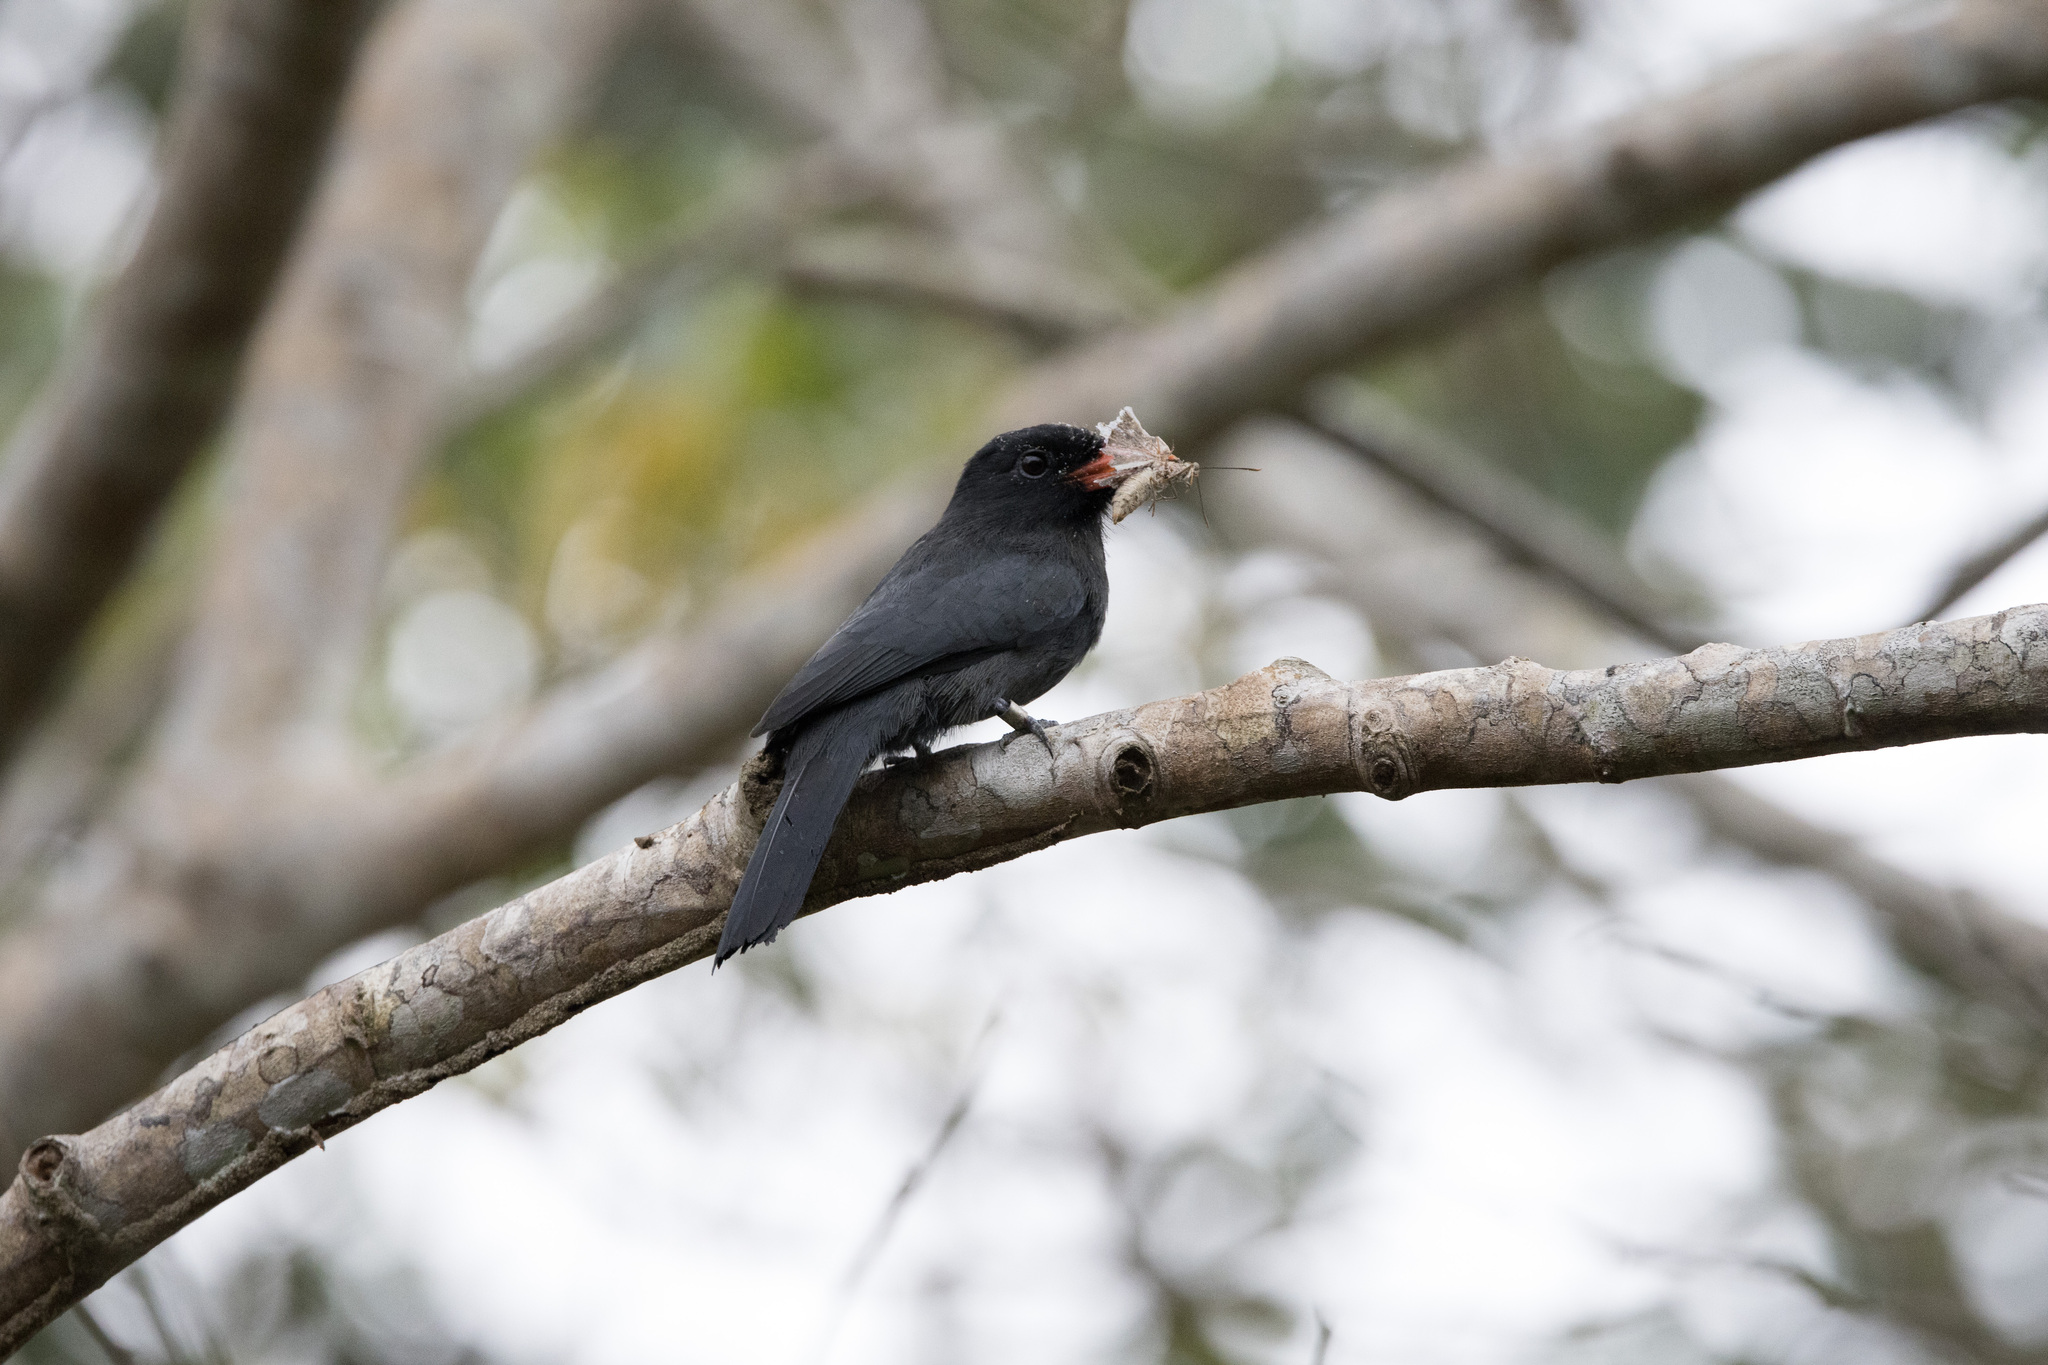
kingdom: Animalia
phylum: Chordata
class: Aves
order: Piciformes
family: Bucconidae
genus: Monasa
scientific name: Monasa nigrifrons
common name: Black-fronted nunbird
